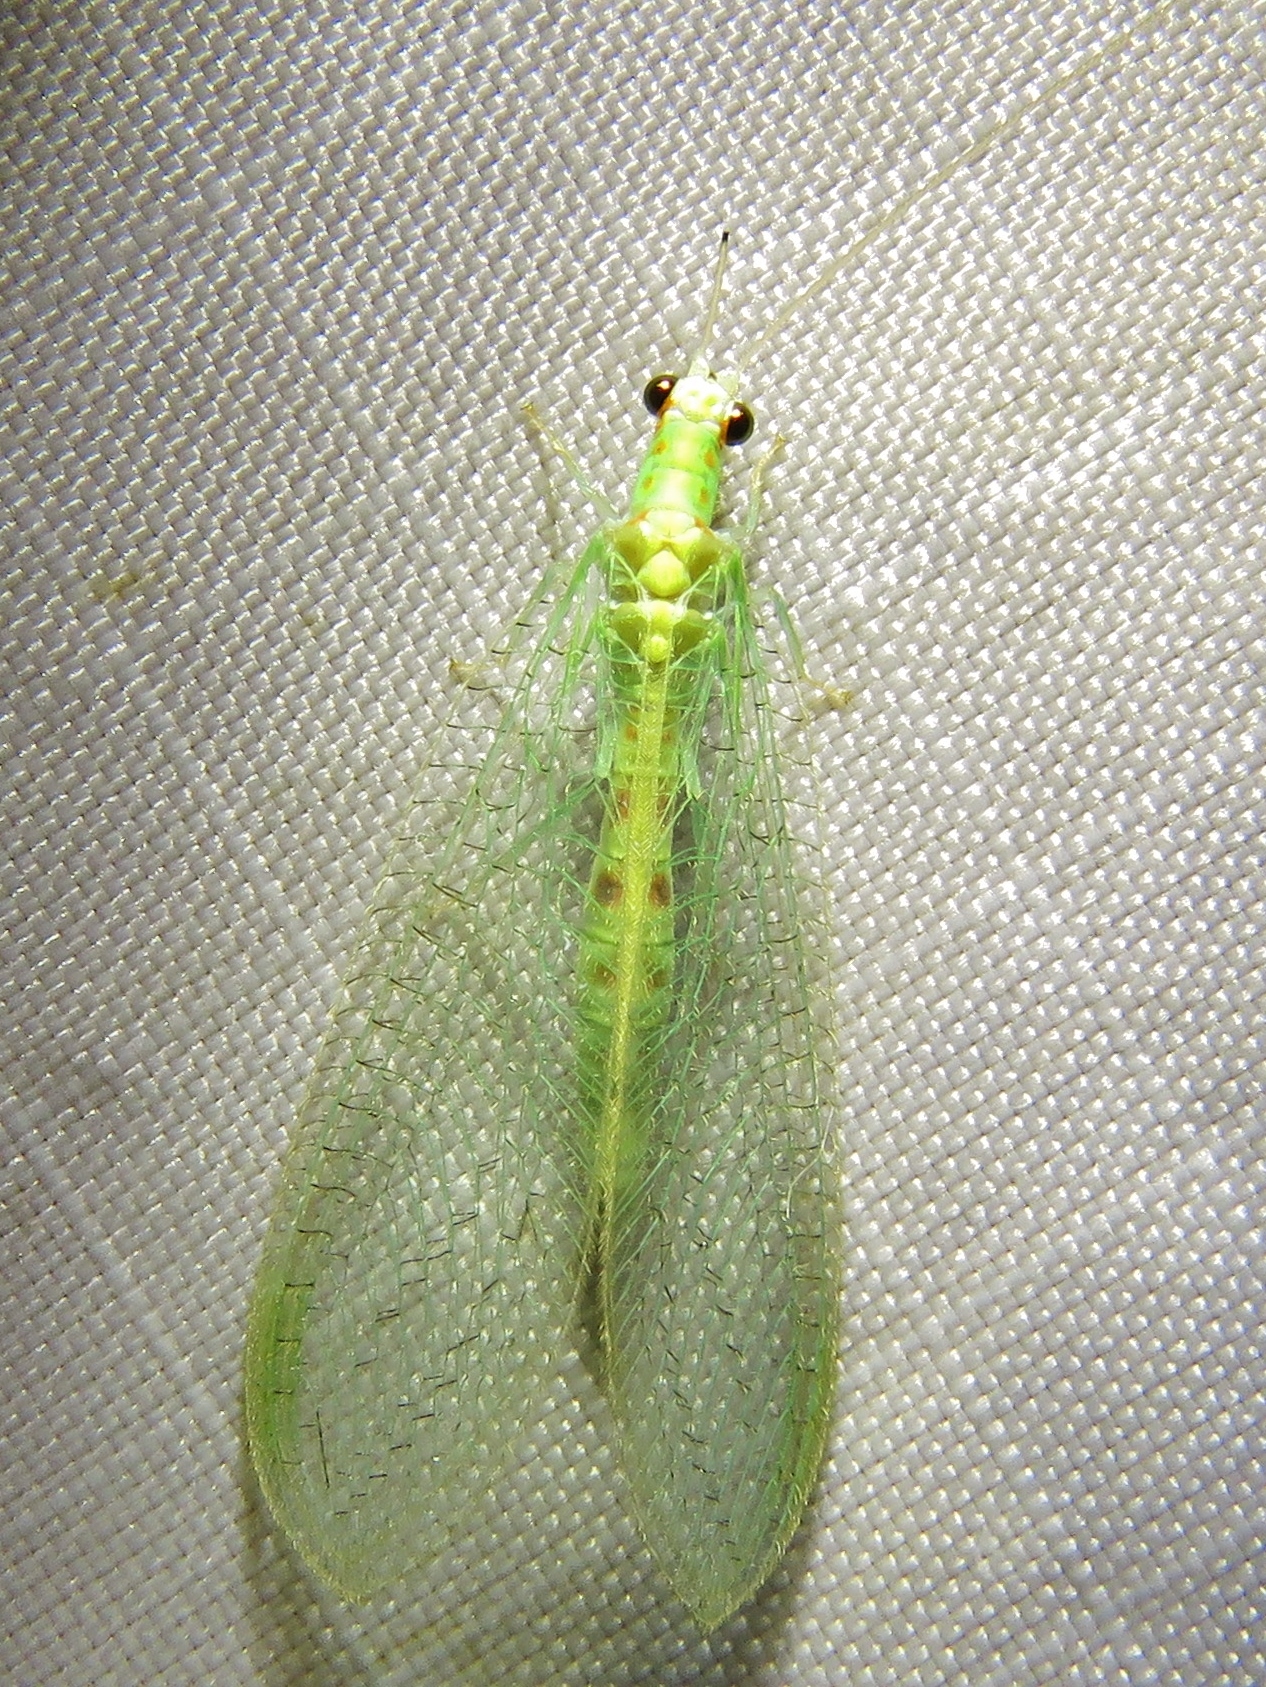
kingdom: Animalia
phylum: Arthropoda
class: Insecta
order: Neuroptera
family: Chrysopidae
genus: Chrysopa
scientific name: Chrysopa quadripunctata
